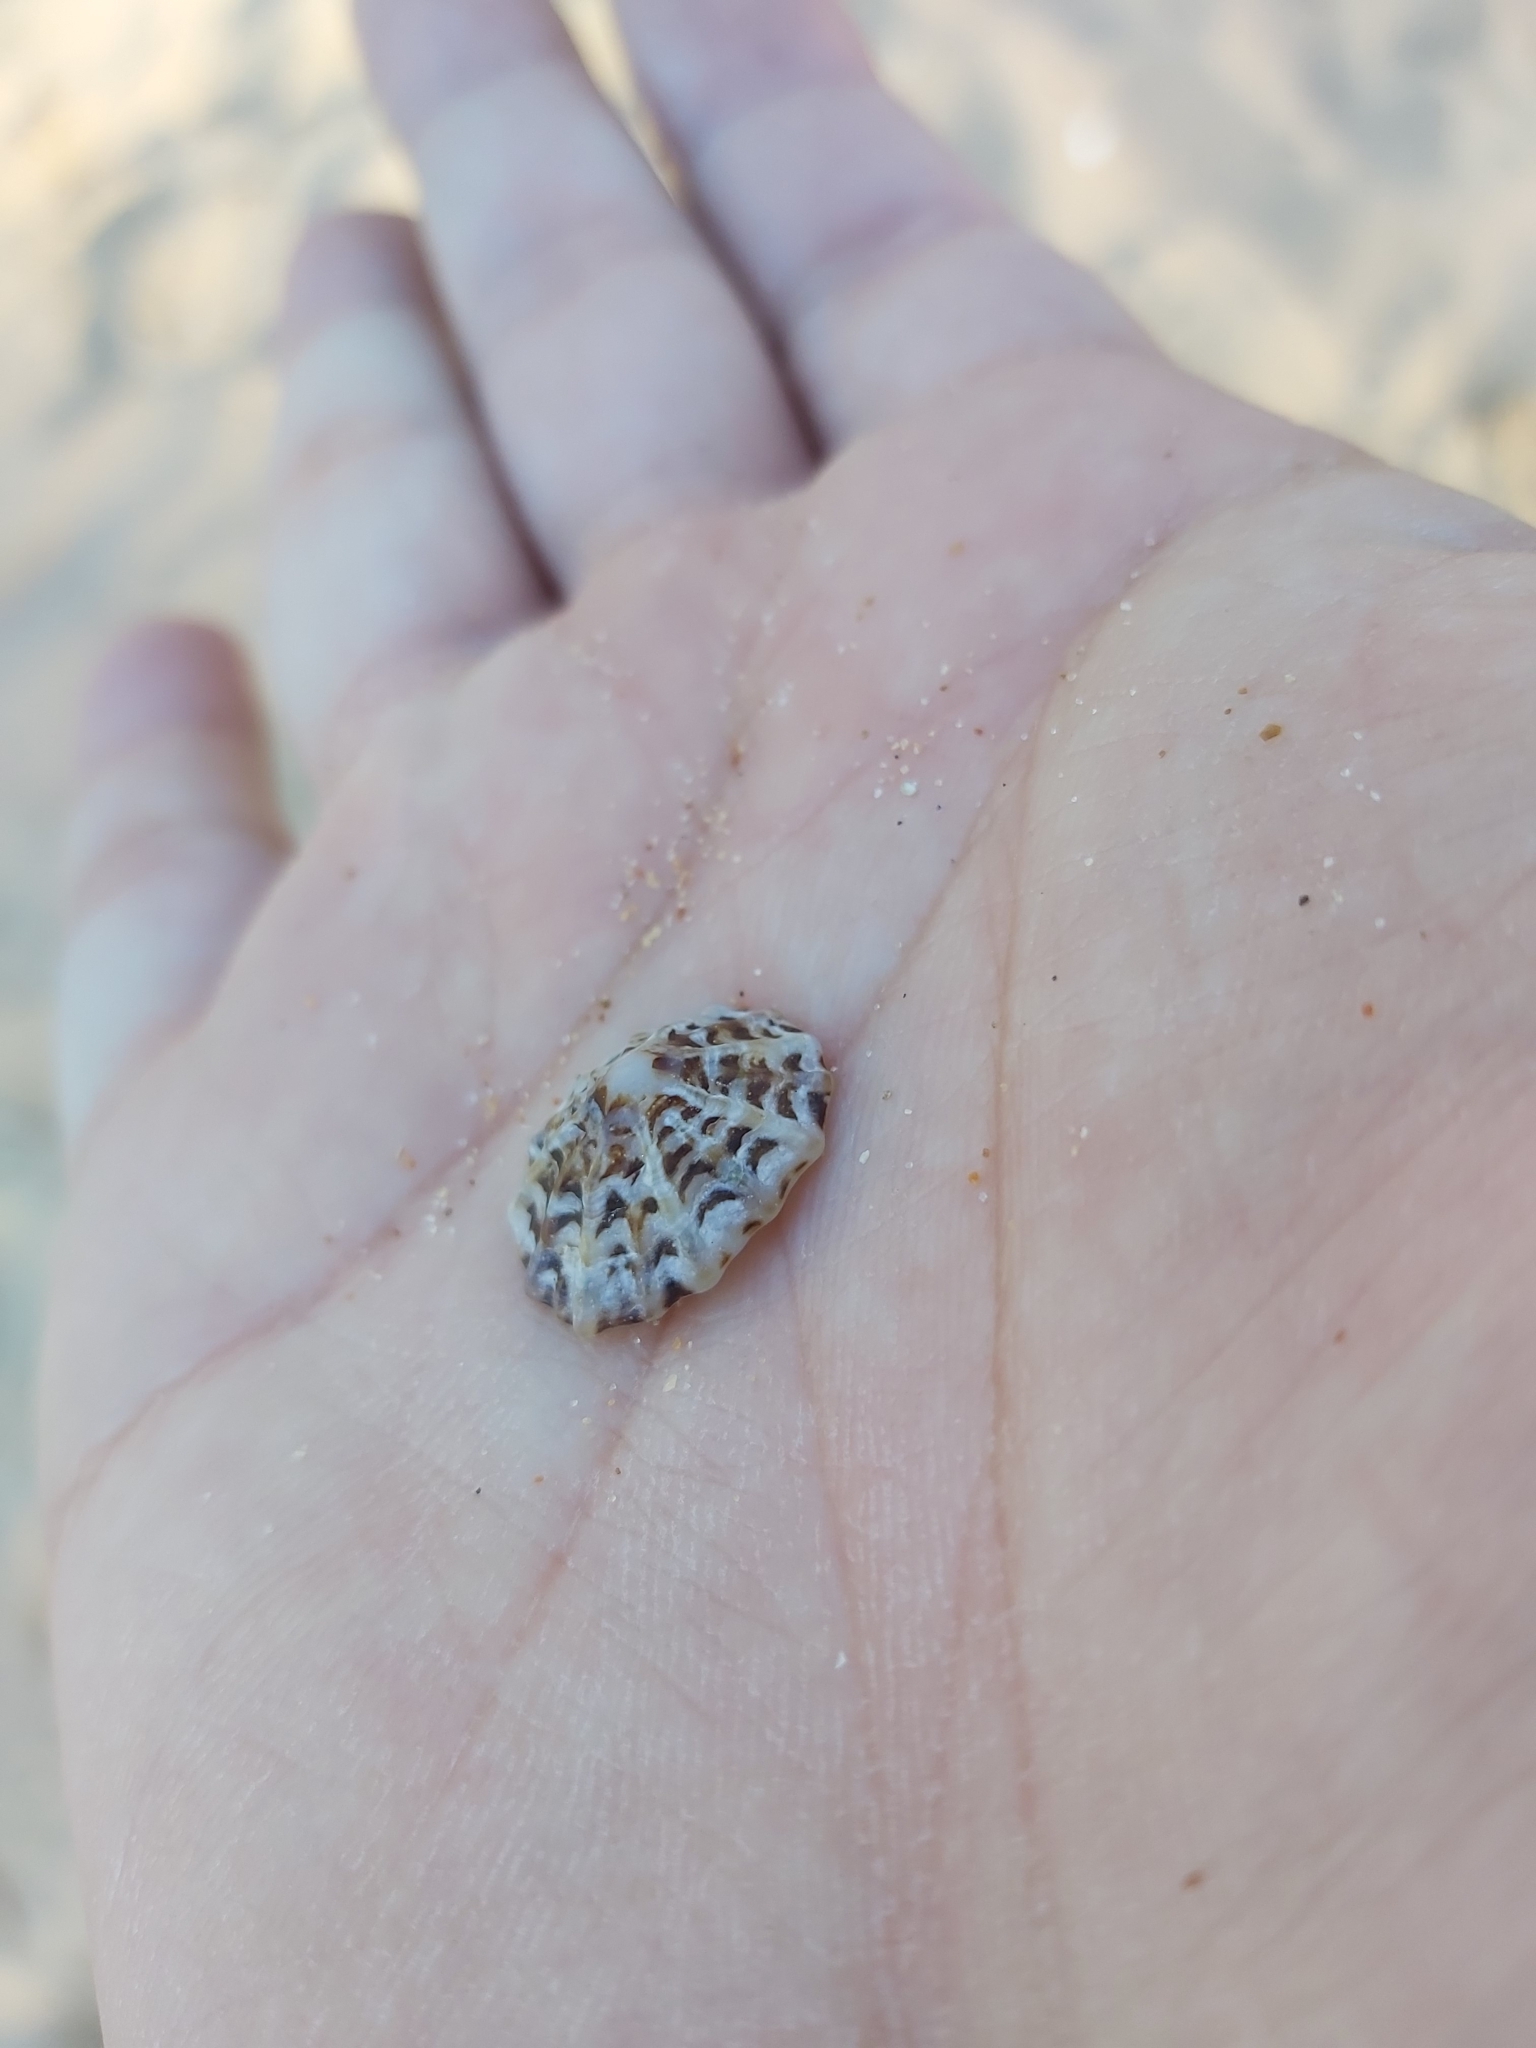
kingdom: Animalia
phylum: Mollusca
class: Gastropoda
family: Lottiidae
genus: Patelloida
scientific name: Patelloida alticostata
